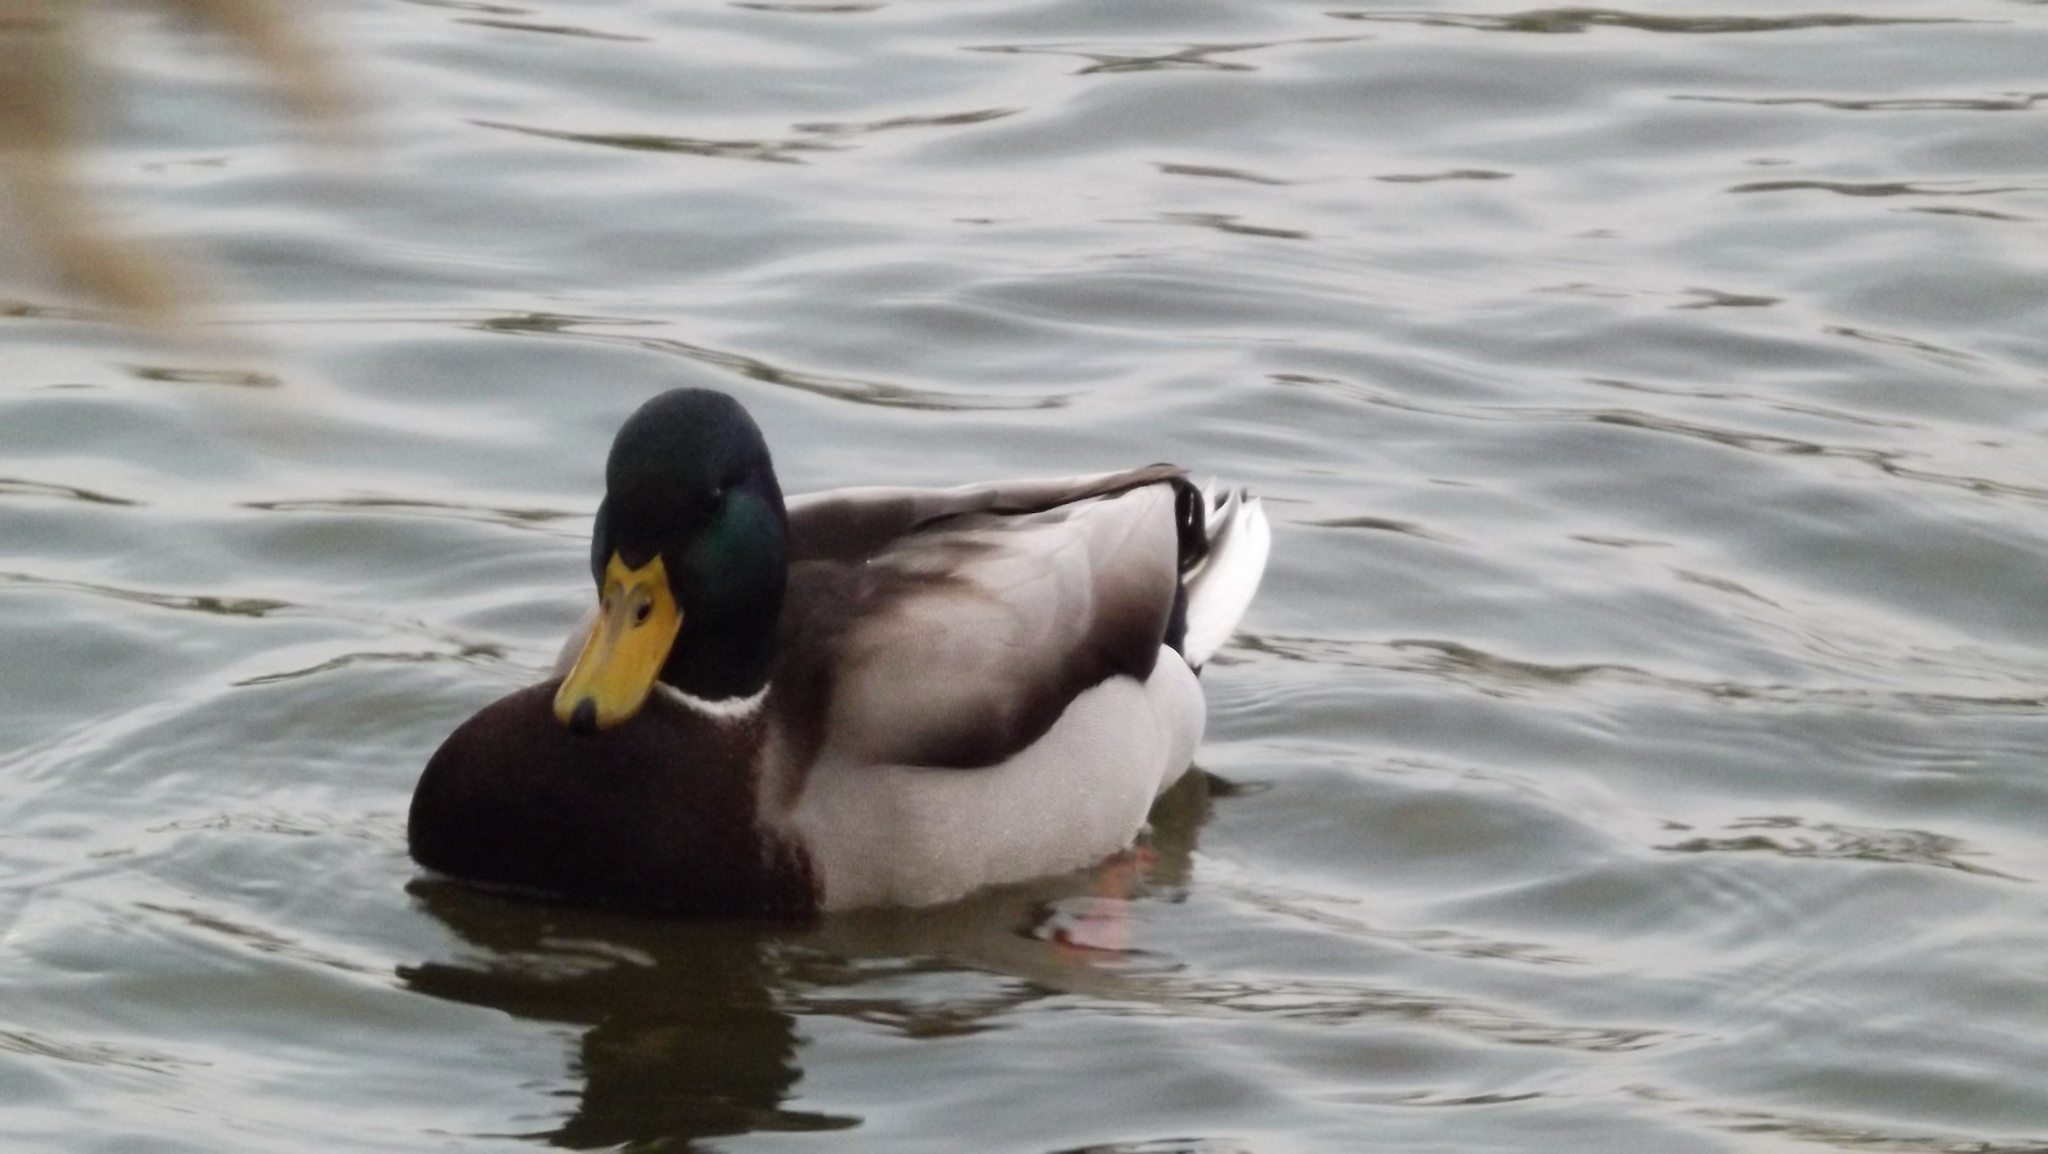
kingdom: Animalia
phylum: Chordata
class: Aves
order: Anseriformes
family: Anatidae
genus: Anas
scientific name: Anas platyrhynchos
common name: Mallard
